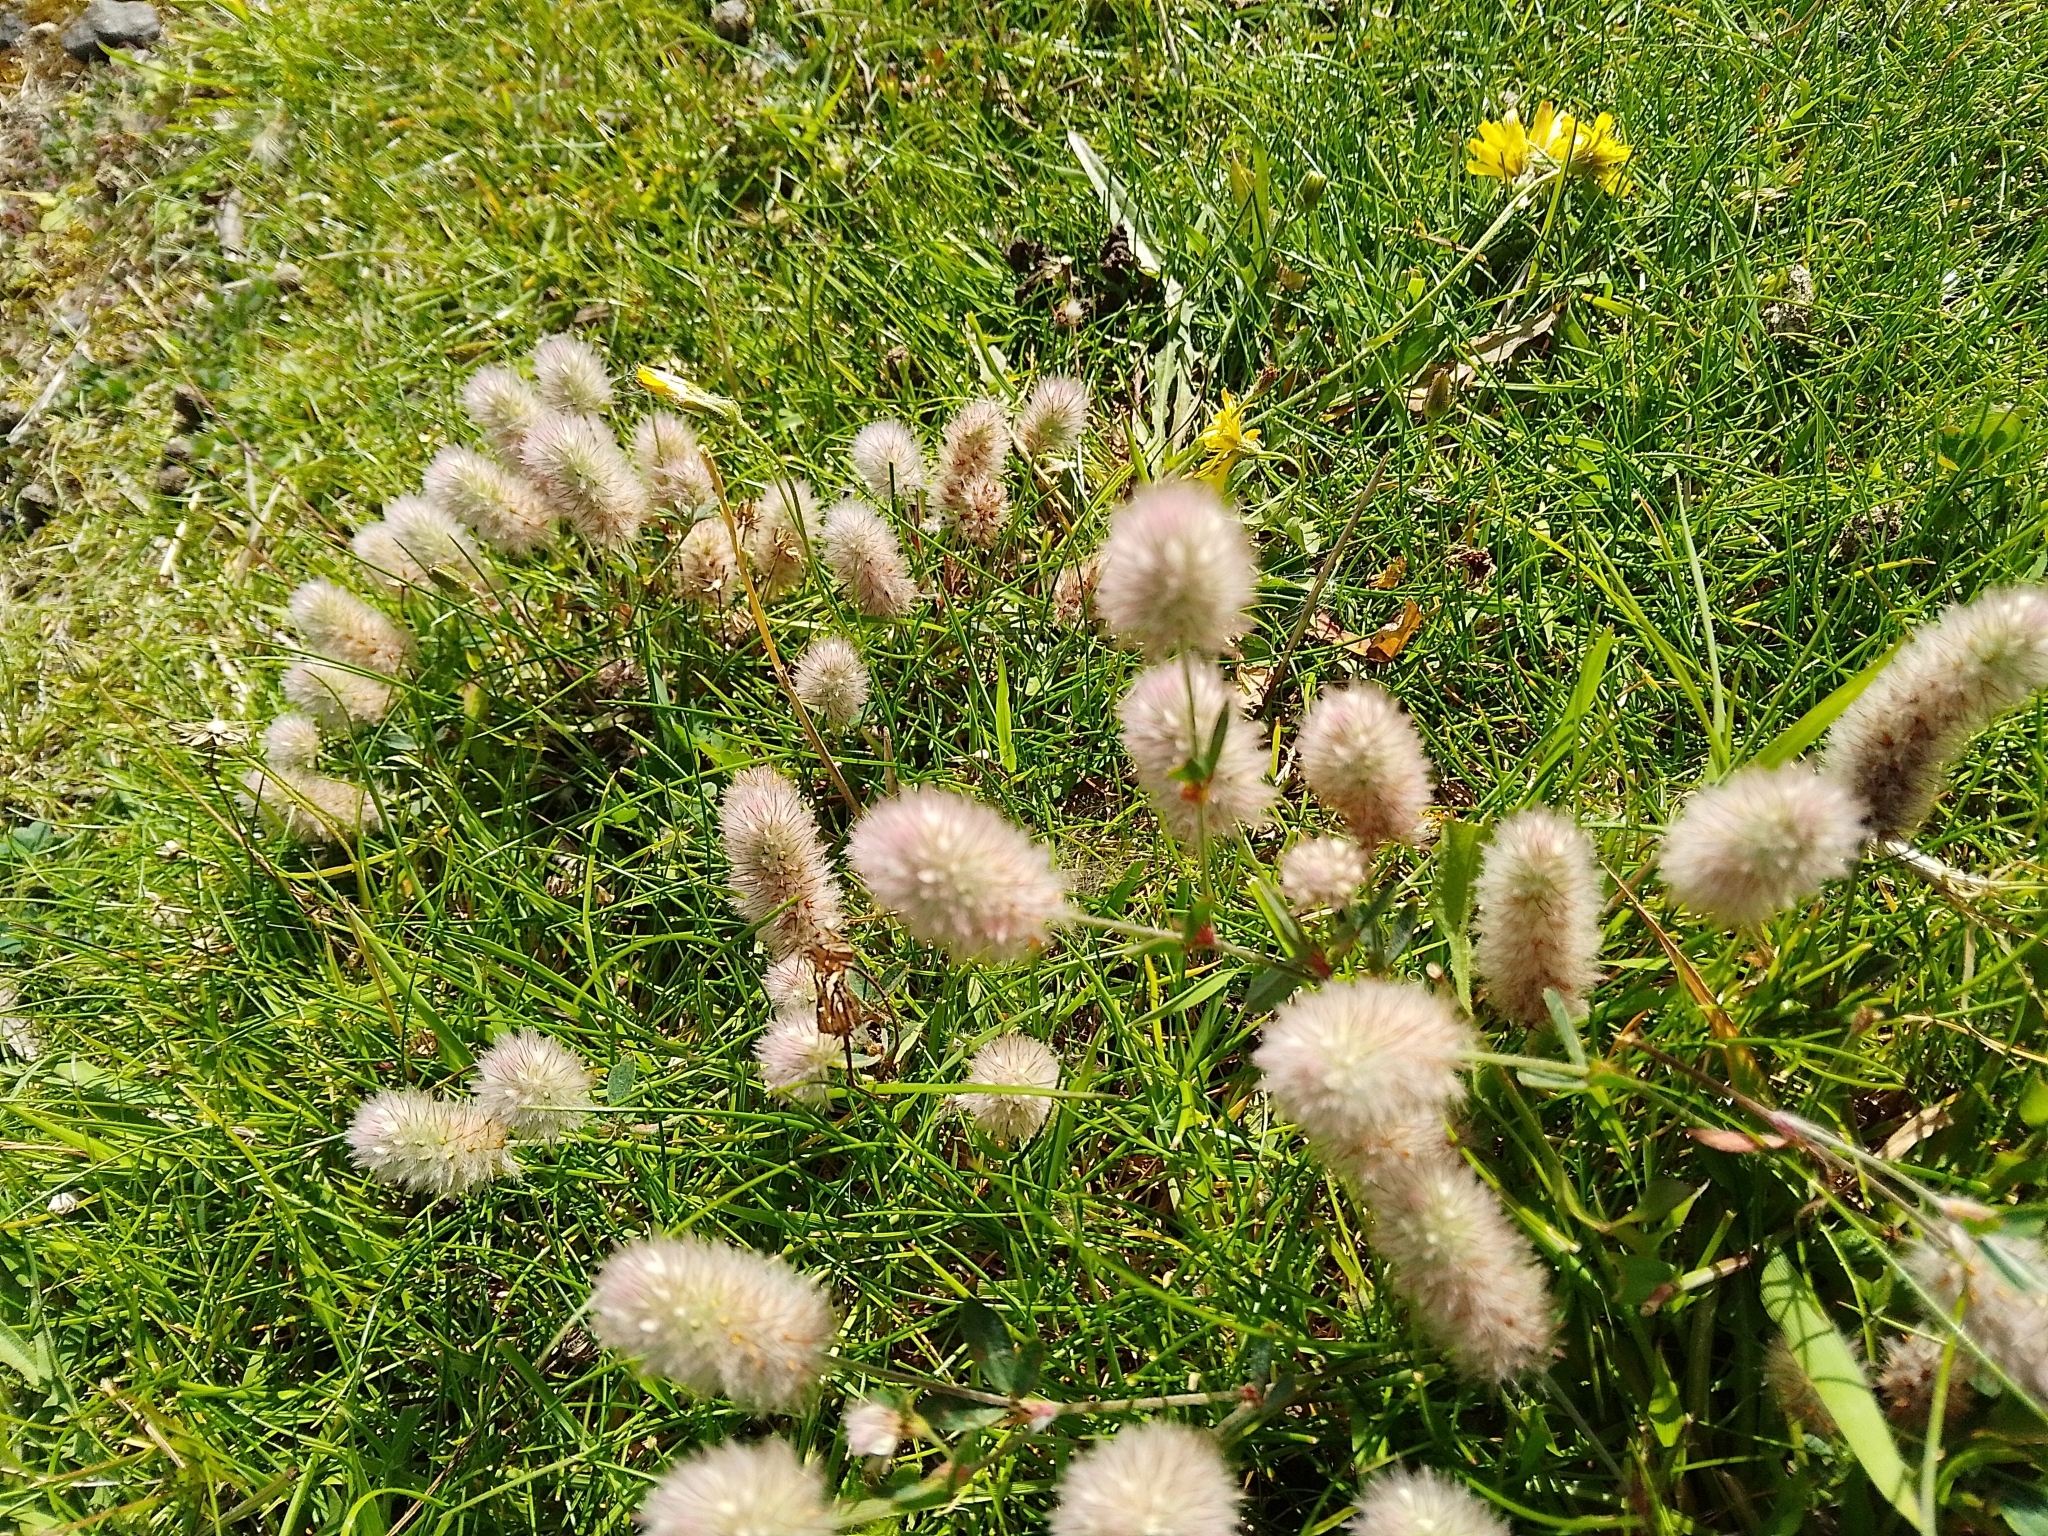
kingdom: Plantae
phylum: Tracheophyta
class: Magnoliopsida
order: Fabales
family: Fabaceae
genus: Trifolium
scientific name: Trifolium arvense
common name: Hare's-foot clover
